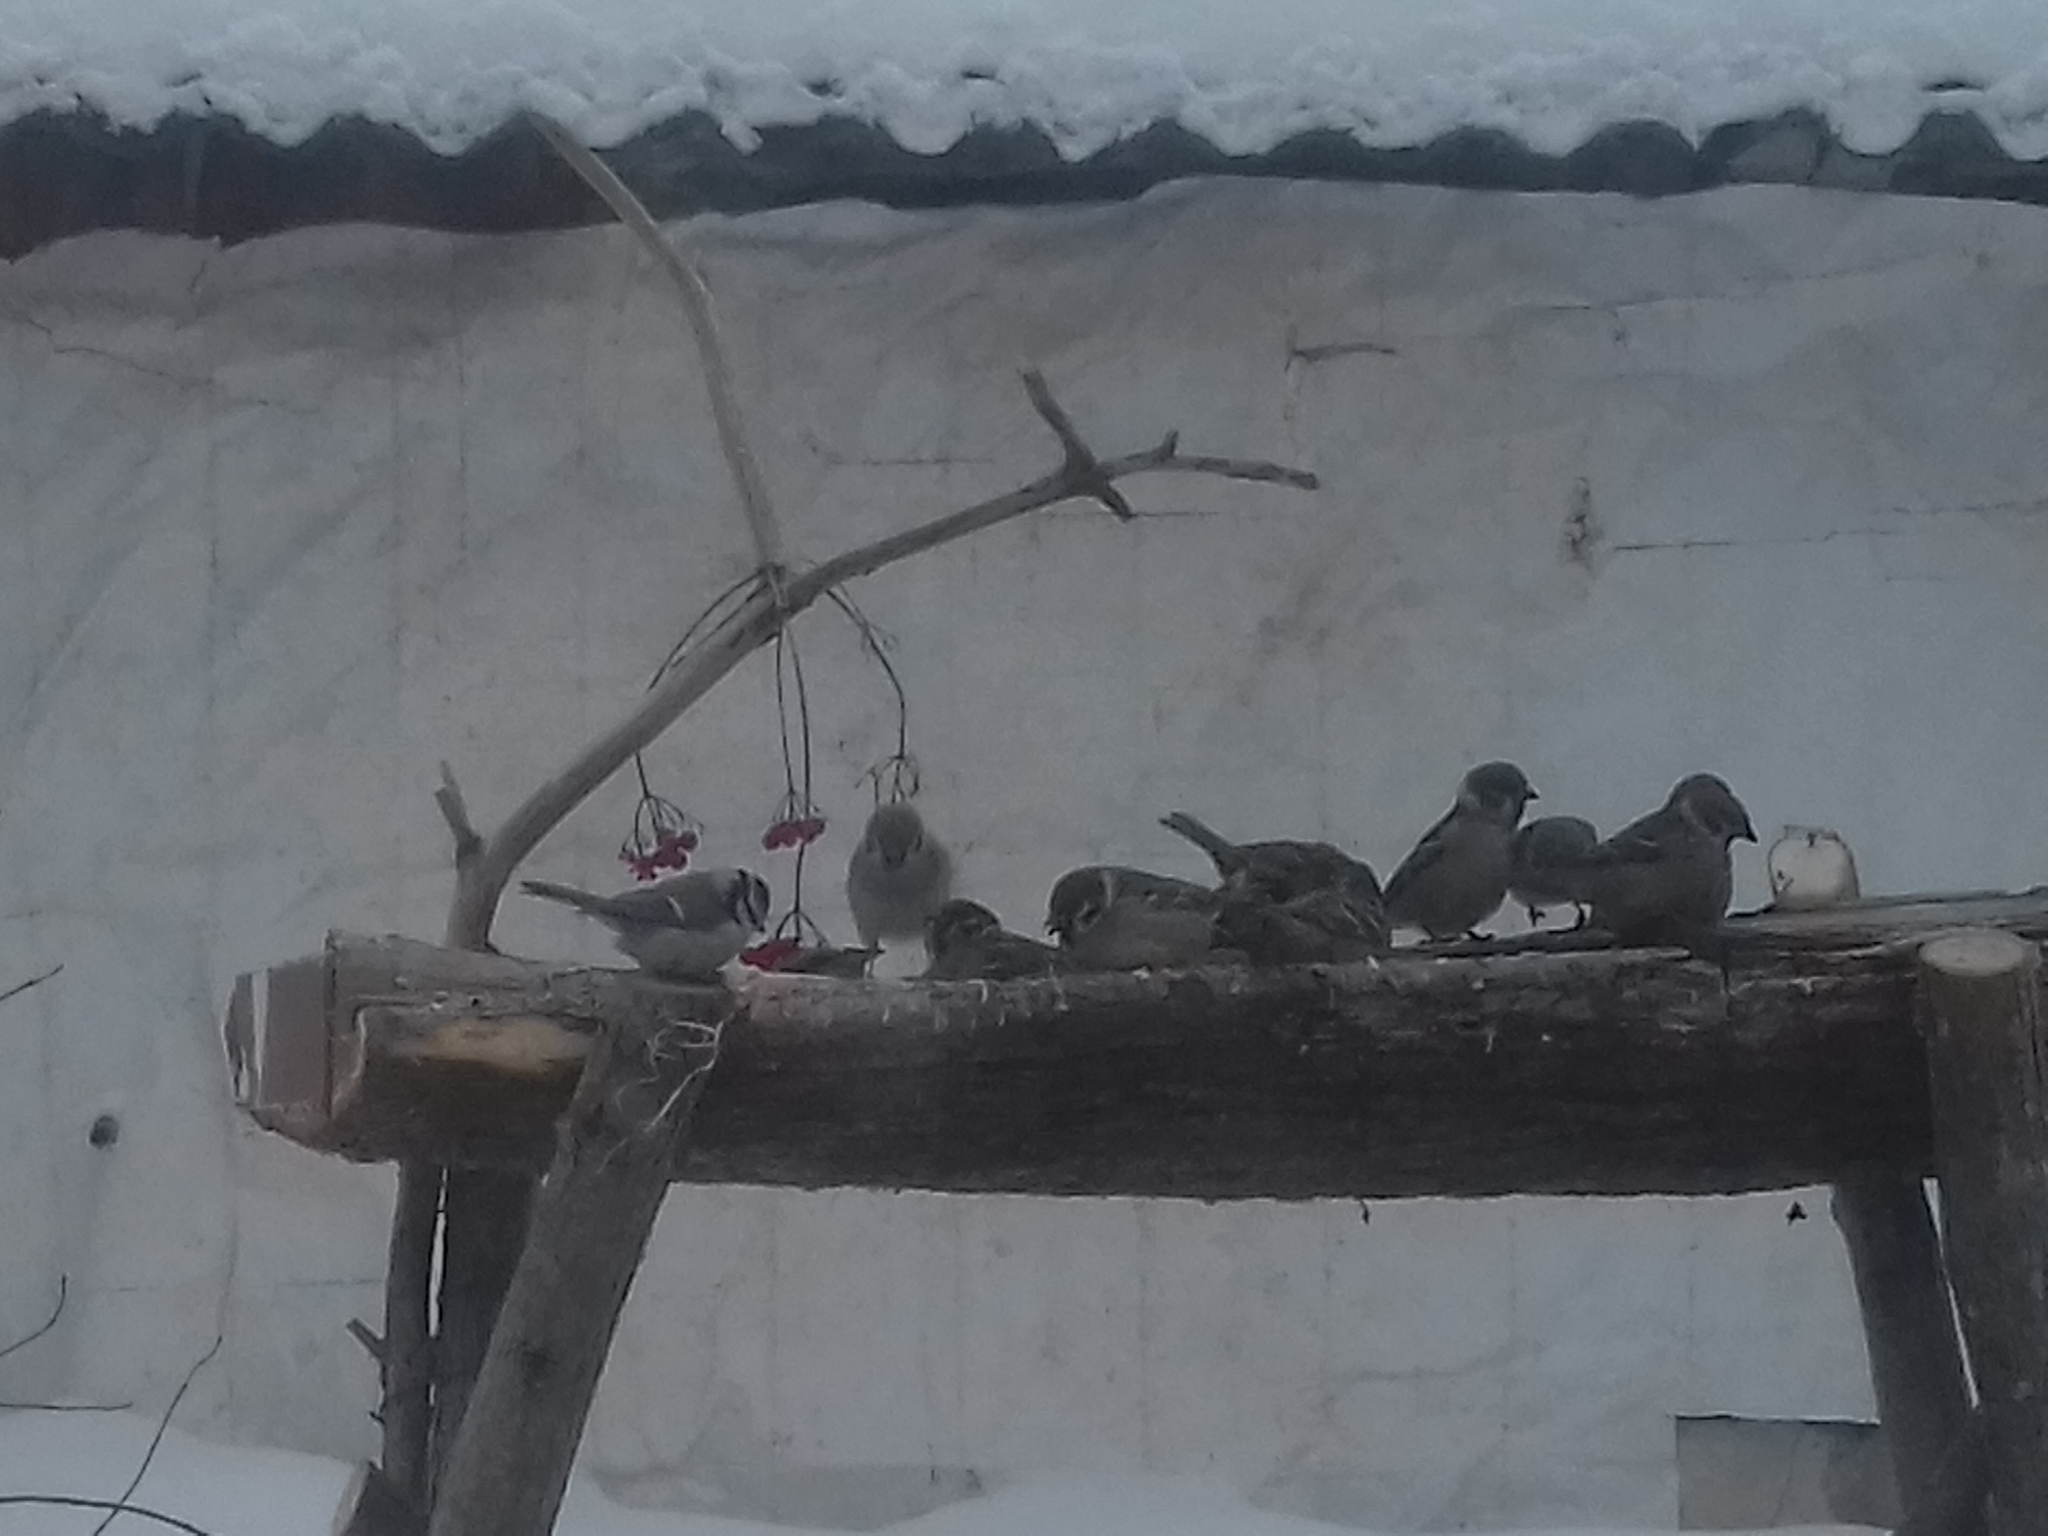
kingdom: Animalia
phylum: Chordata
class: Aves
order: Passeriformes
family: Paridae
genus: Cyanistes
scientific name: Cyanistes caeruleus
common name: Eurasian blue tit
